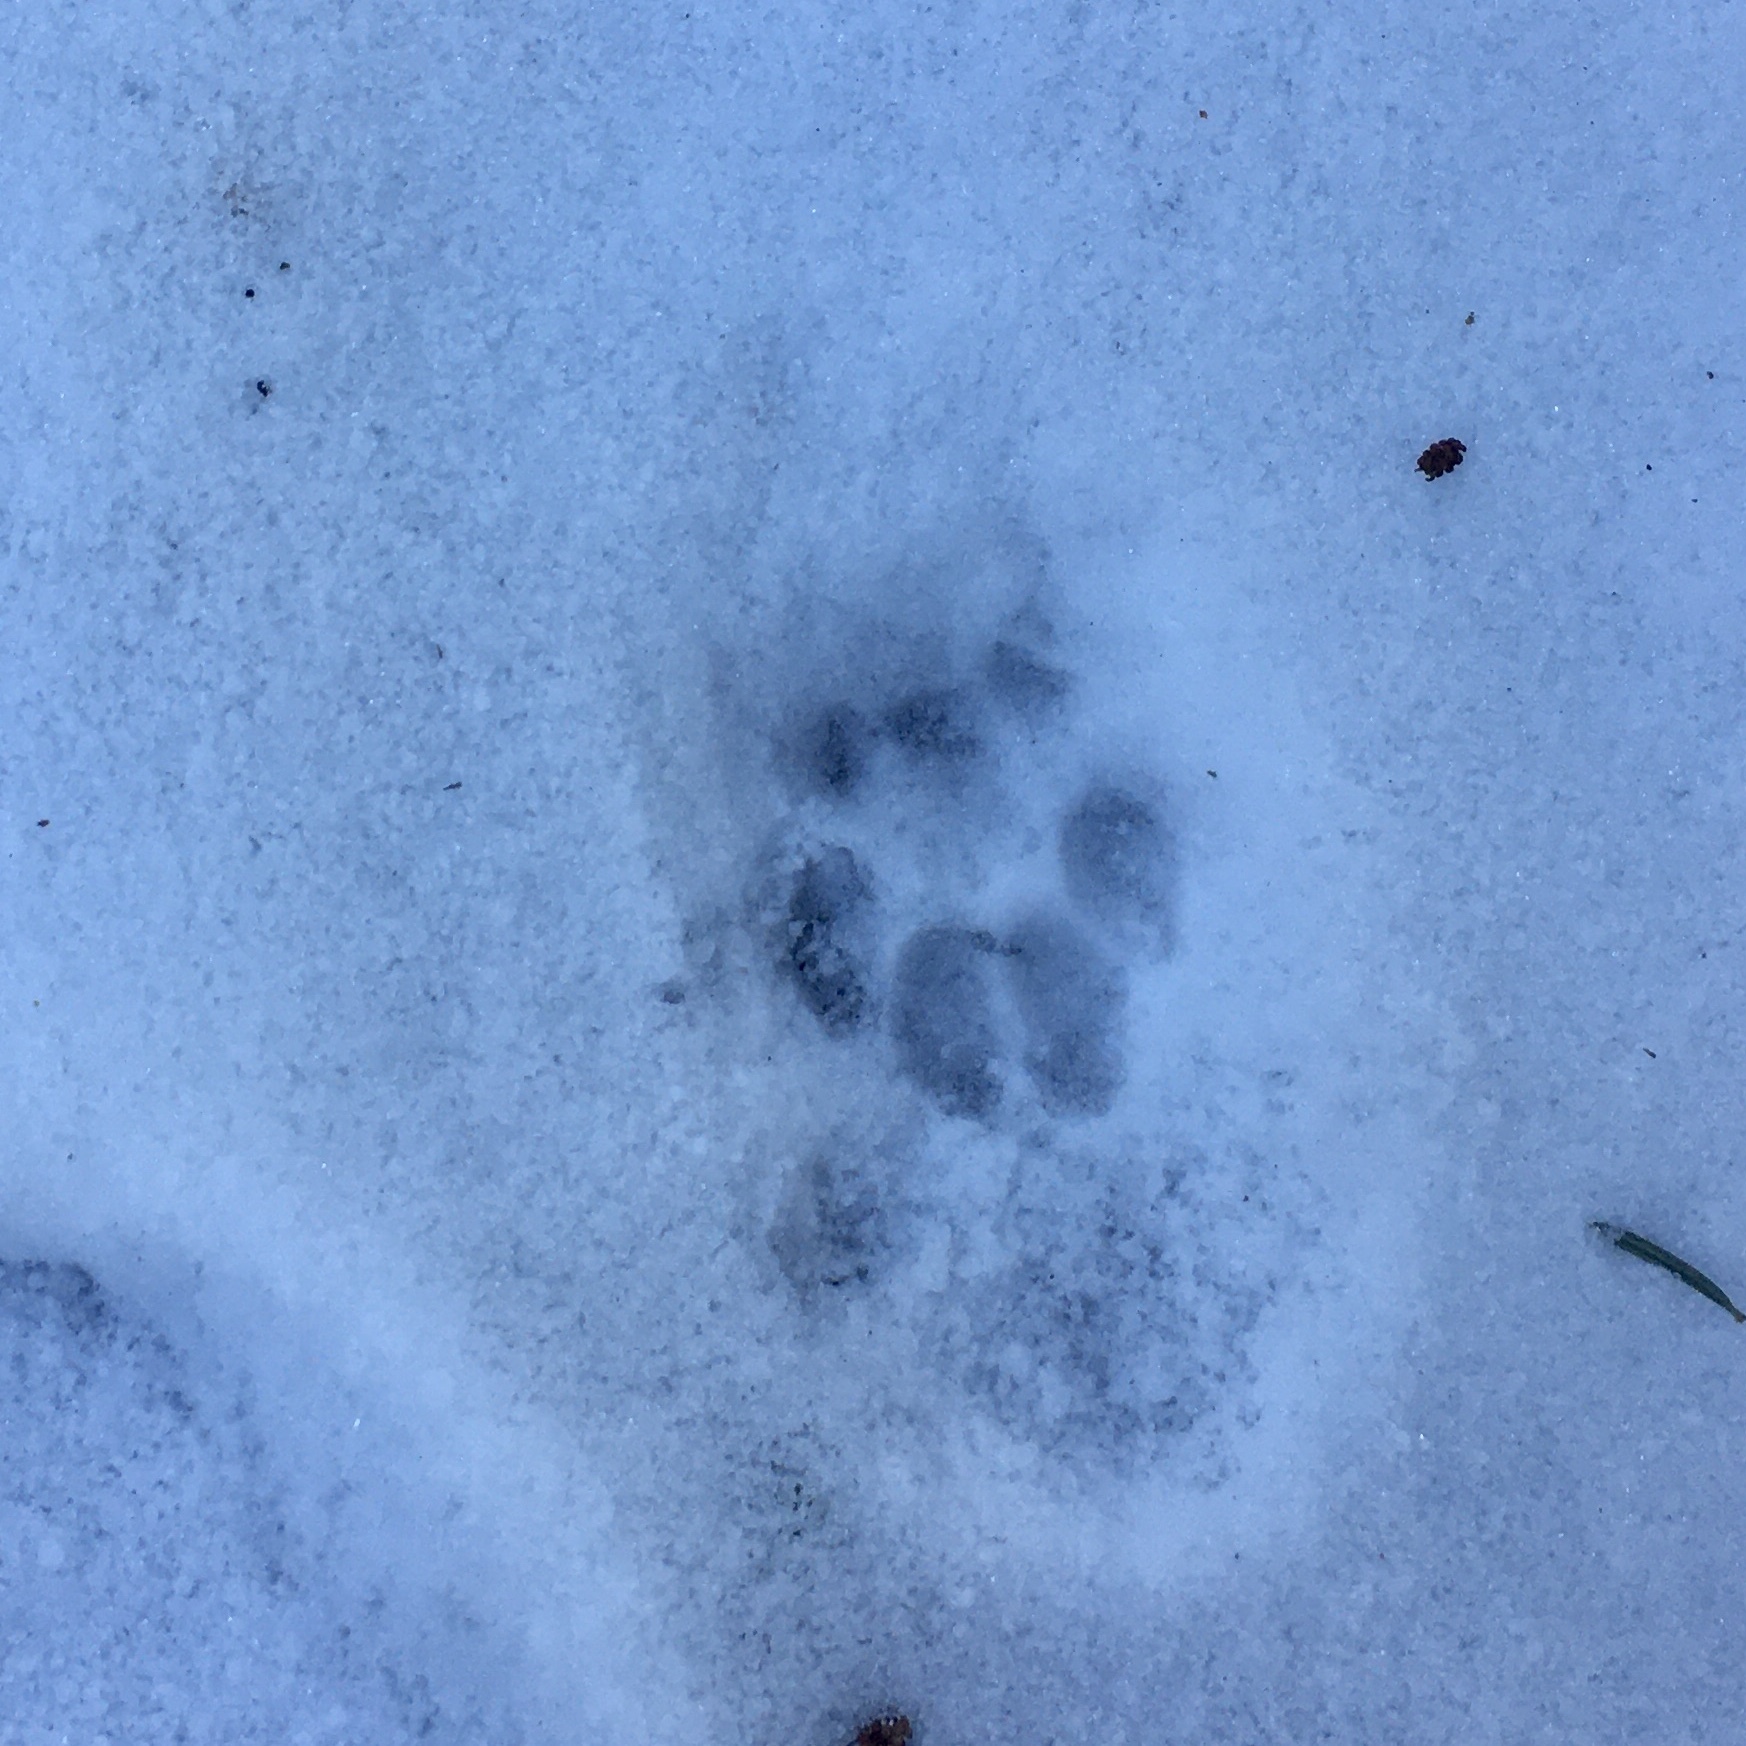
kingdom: Animalia
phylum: Chordata
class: Mammalia
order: Carnivora
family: Felidae
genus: Felis
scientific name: Felis catus
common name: Domestic cat
